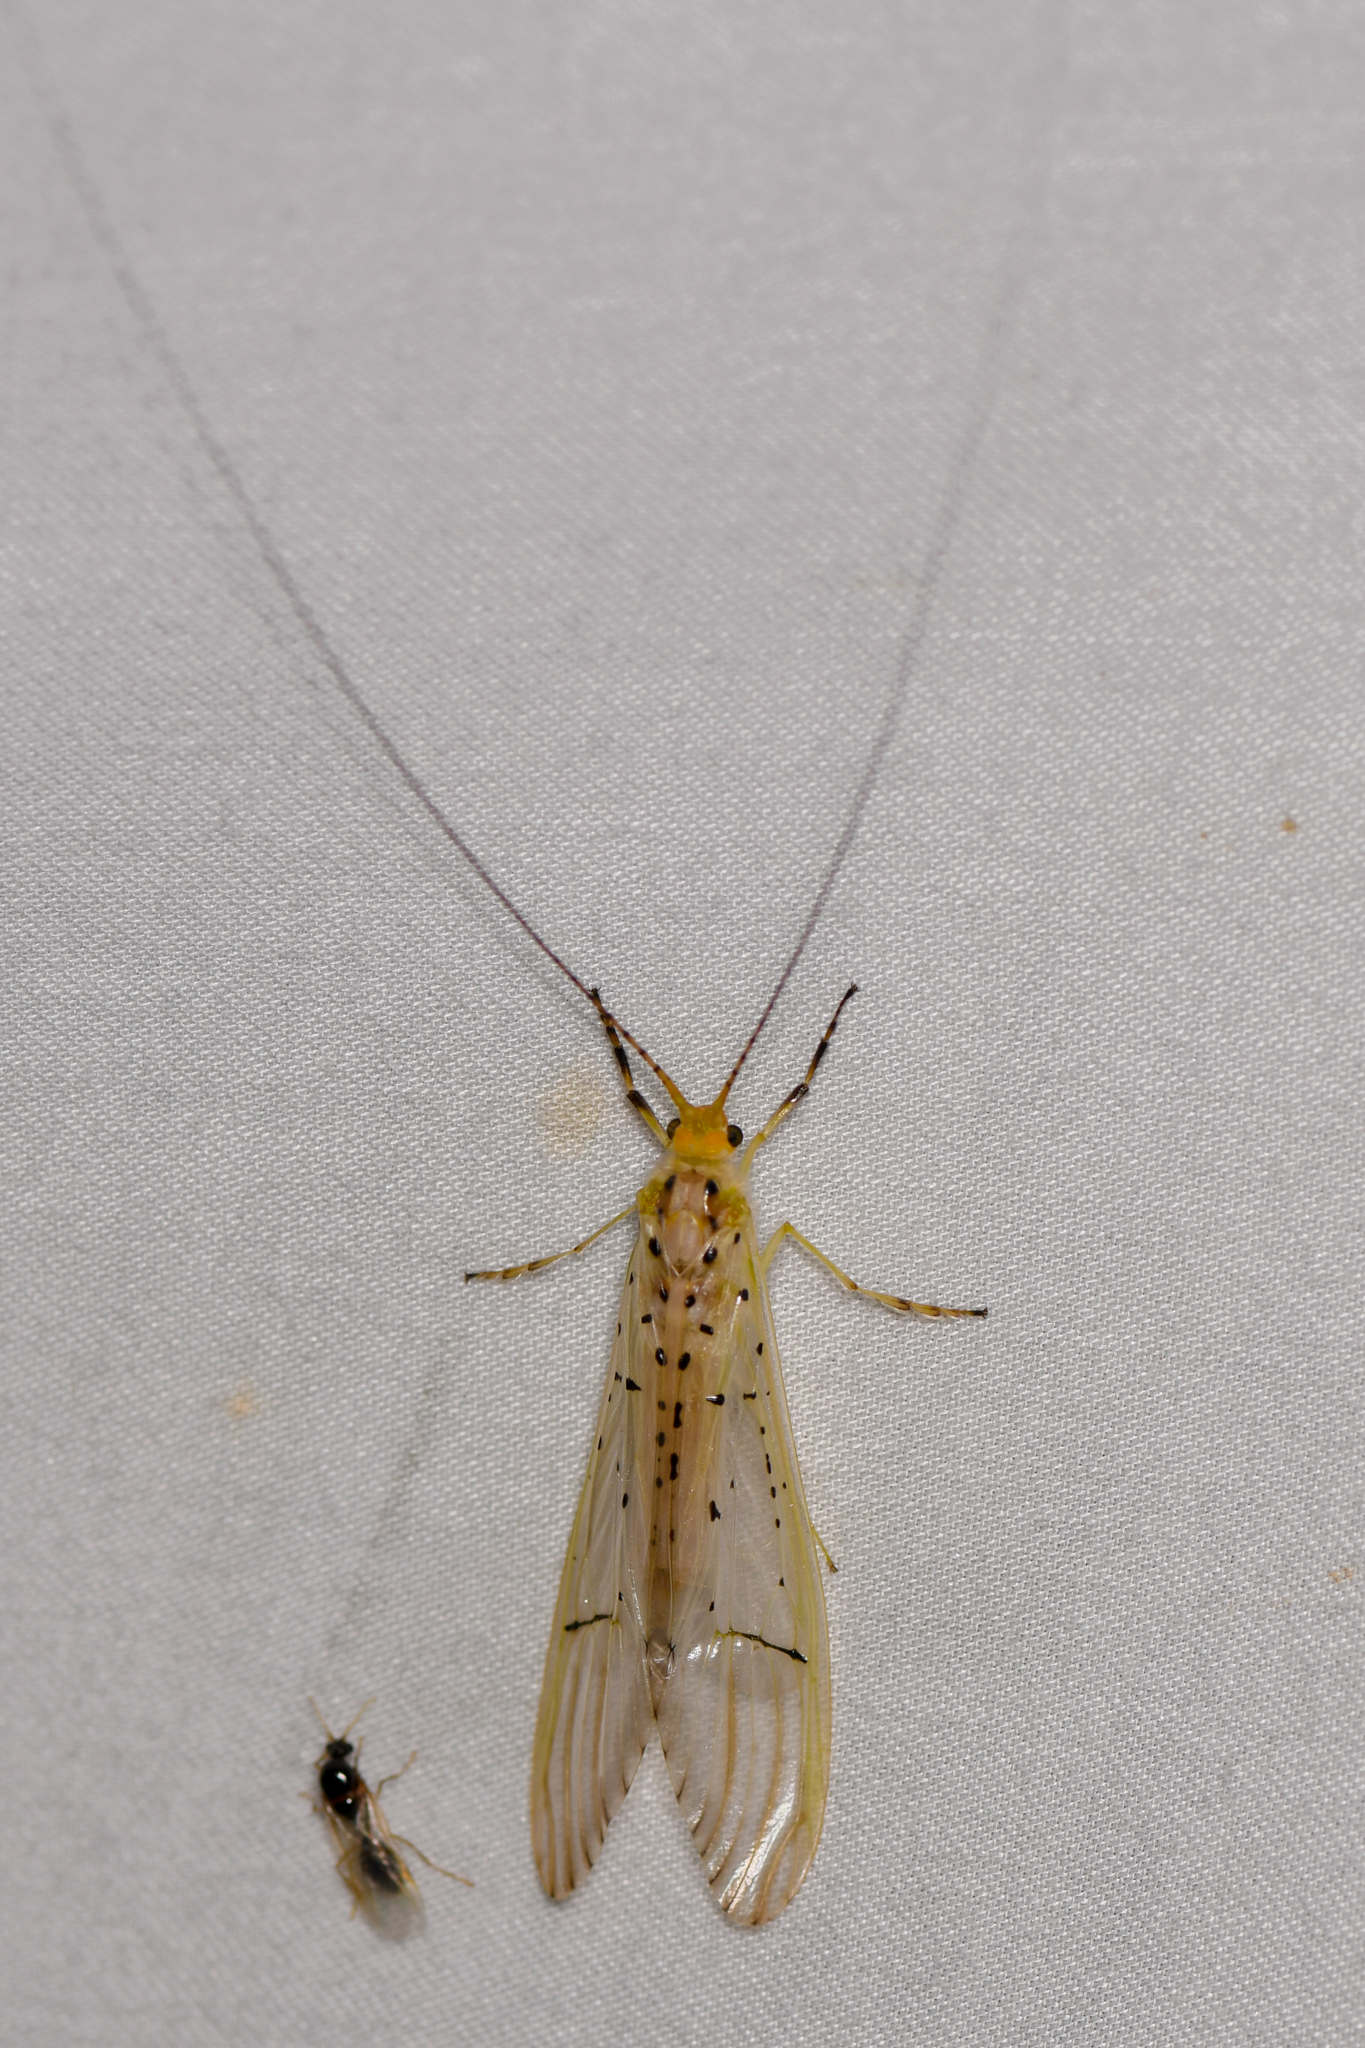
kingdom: Animalia
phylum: Arthropoda
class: Insecta
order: Trichoptera
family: Hydropsychidae
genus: Synoestropsis
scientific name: Synoestropsis punctipennis
